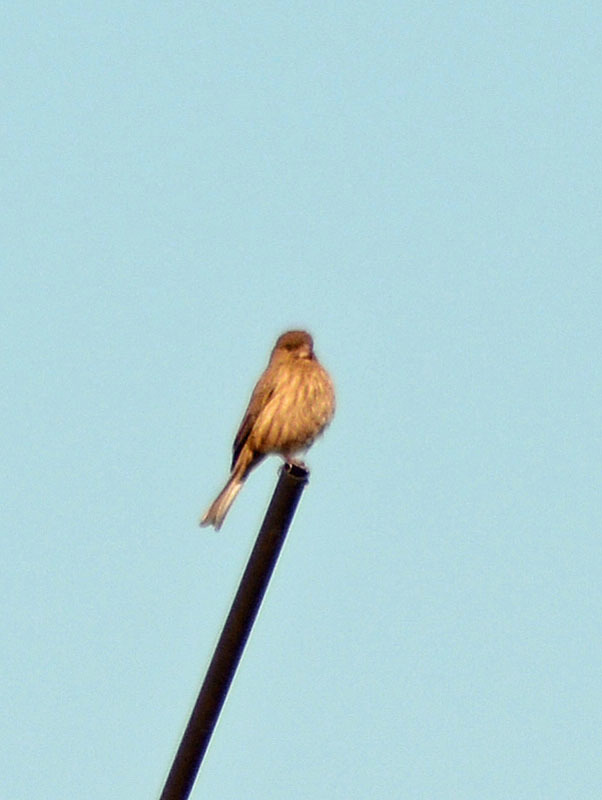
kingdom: Animalia
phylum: Chordata
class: Aves
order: Passeriformes
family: Fringillidae
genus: Haemorhous
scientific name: Haemorhous mexicanus
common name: House finch
